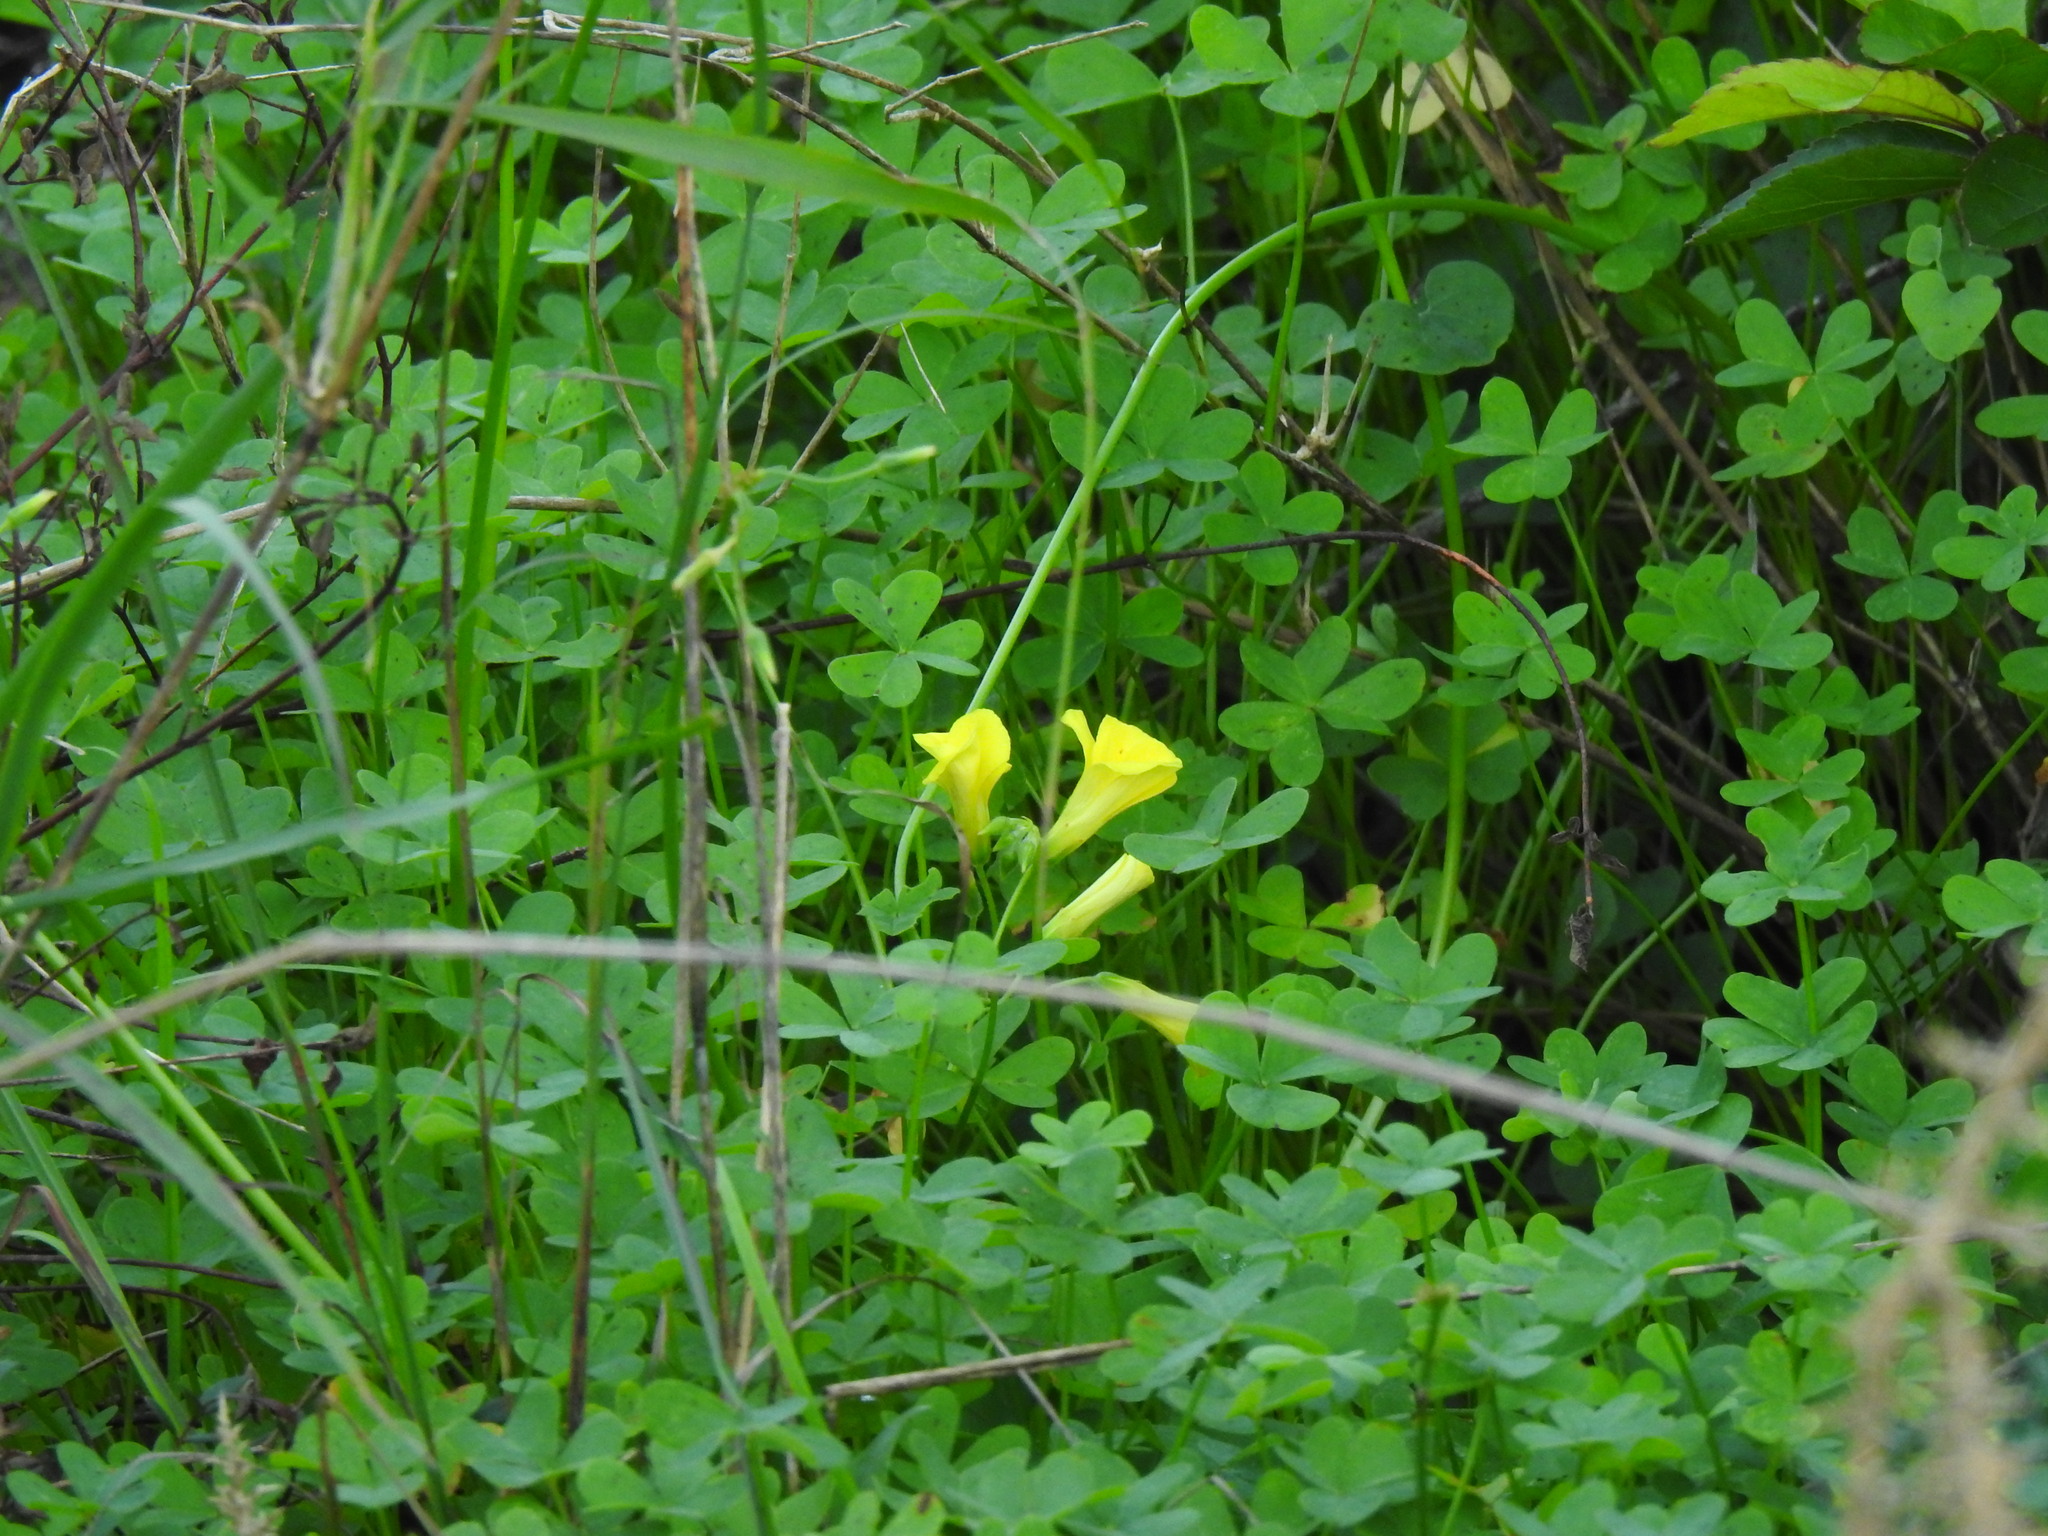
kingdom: Plantae
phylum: Tracheophyta
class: Magnoliopsida
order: Oxalidales
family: Oxalidaceae
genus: Oxalis
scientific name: Oxalis pes-caprae
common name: Bermuda-buttercup
